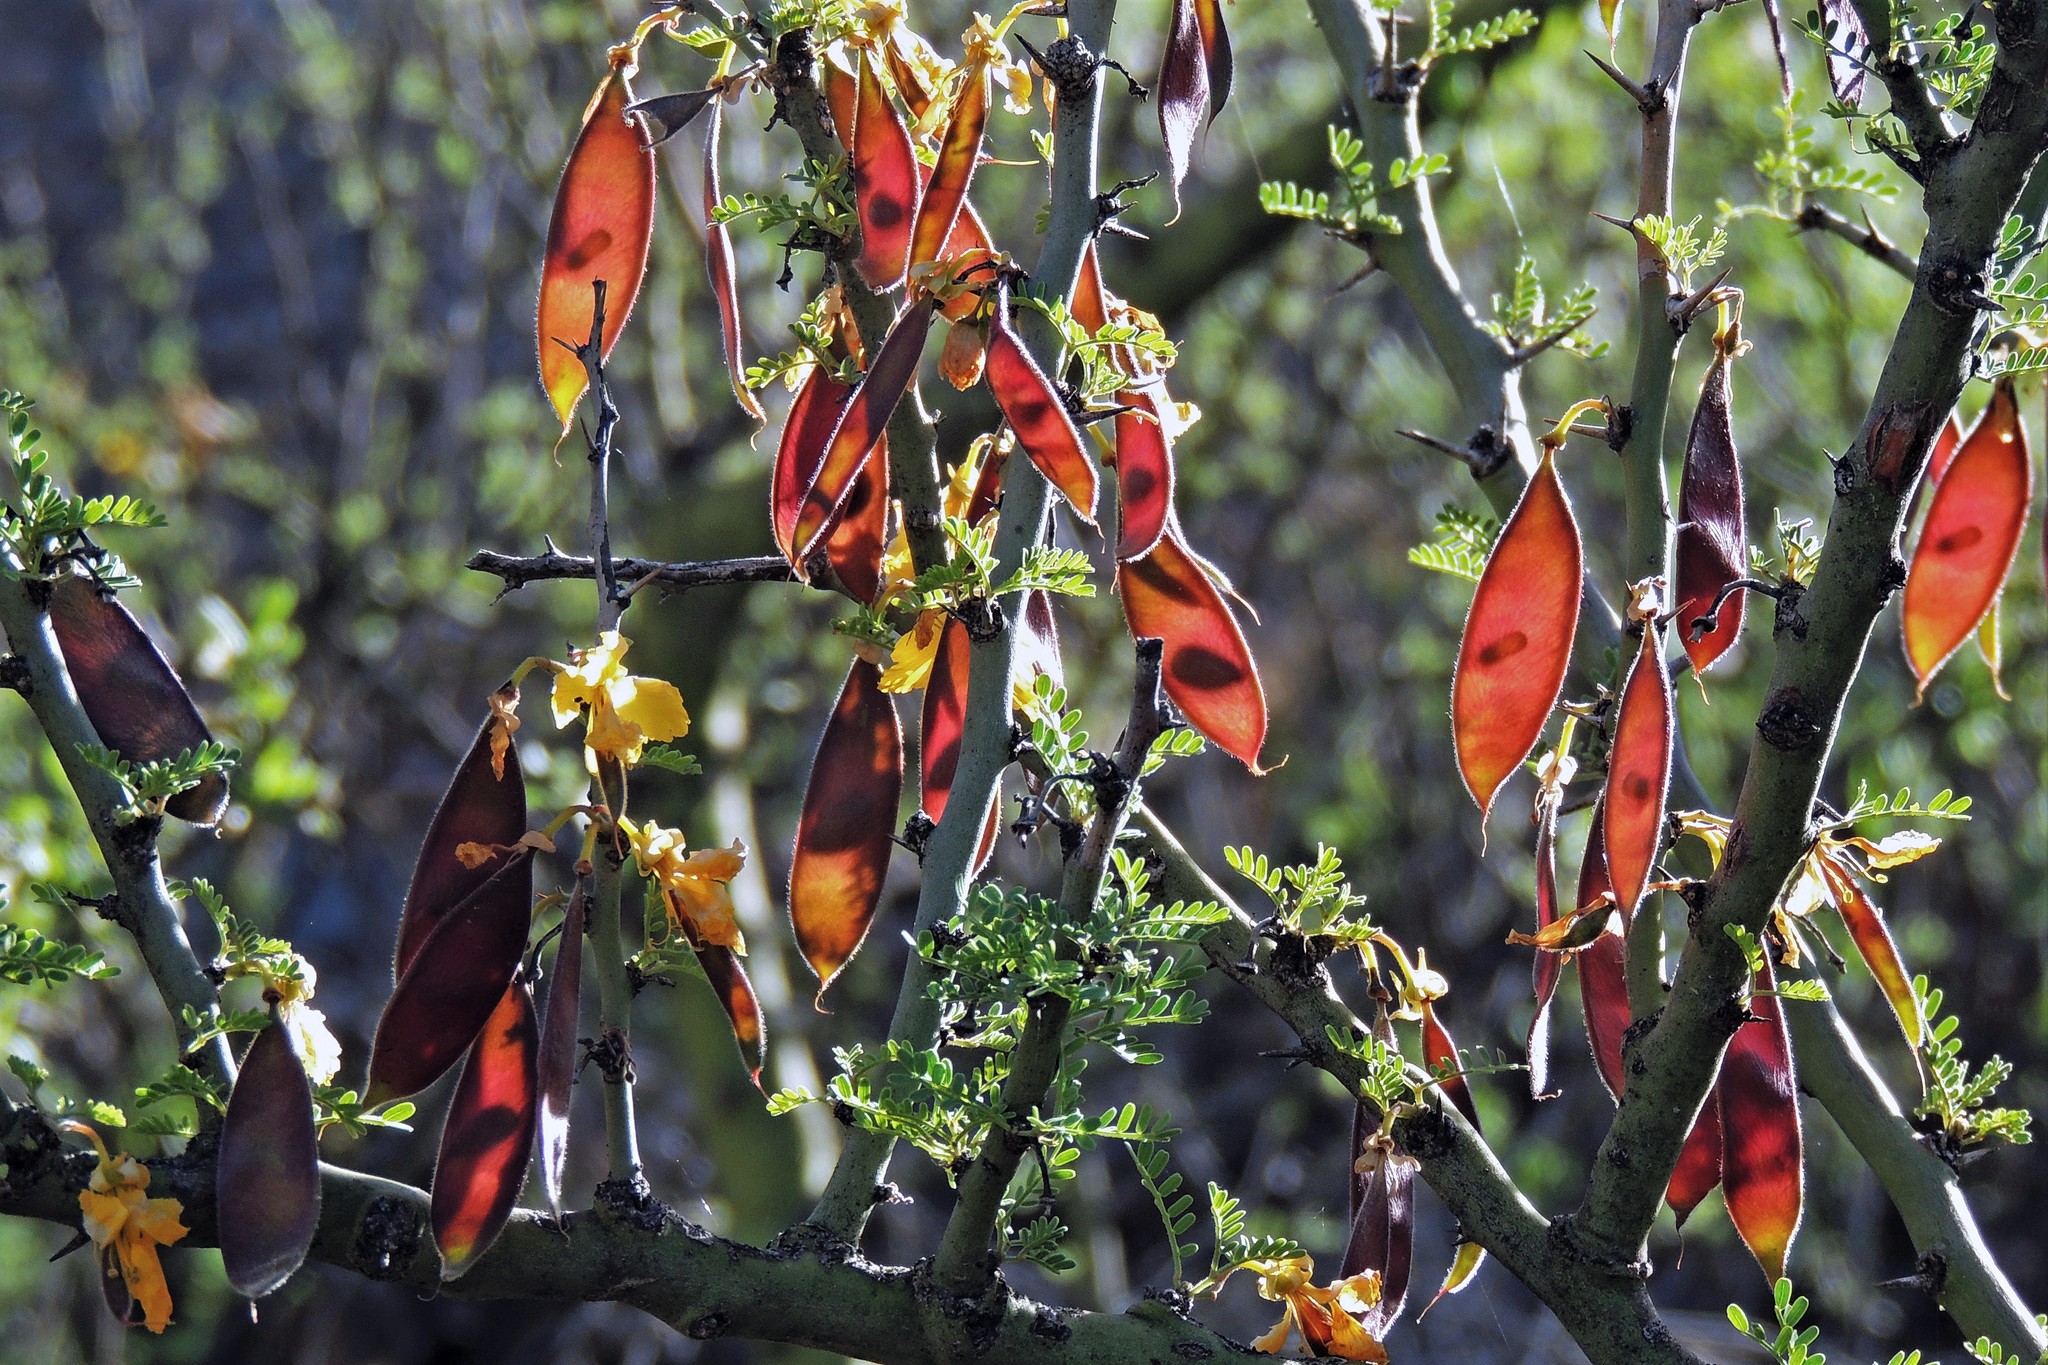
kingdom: Plantae
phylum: Tracheophyta
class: Magnoliopsida
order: Fabales
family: Fabaceae
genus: Parkinsonia
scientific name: Parkinsonia praecox
